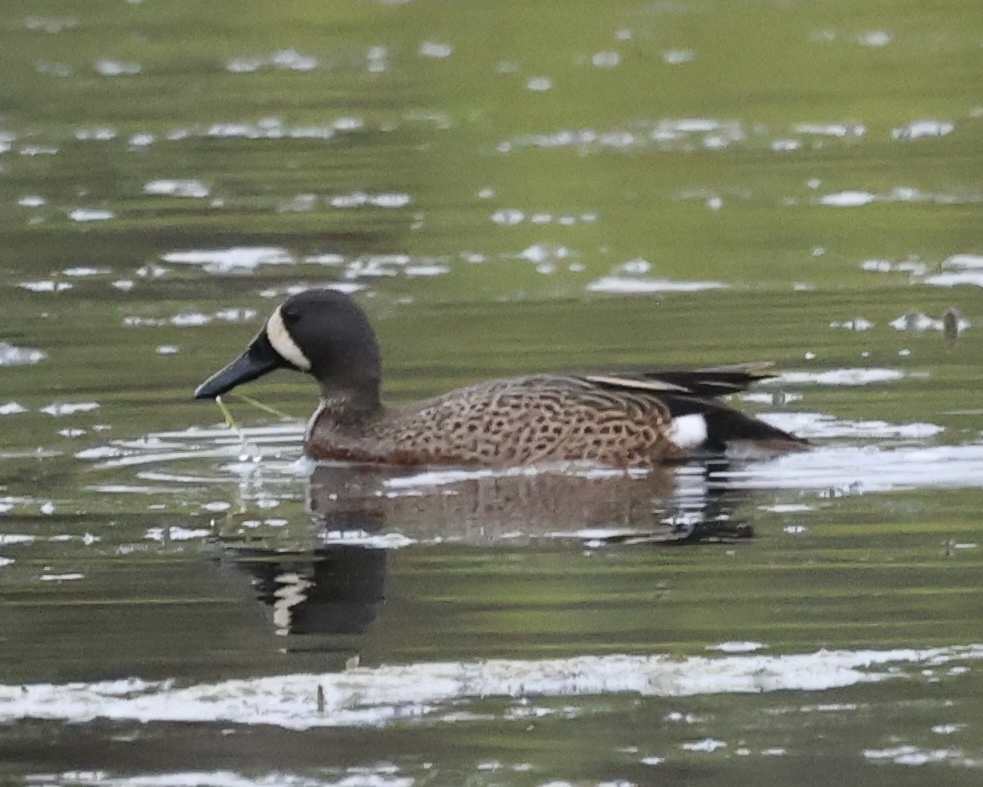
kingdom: Animalia
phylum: Chordata
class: Aves
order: Anseriformes
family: Anatidae
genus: Spatula
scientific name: Spatula discors
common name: Blue-winged teal
